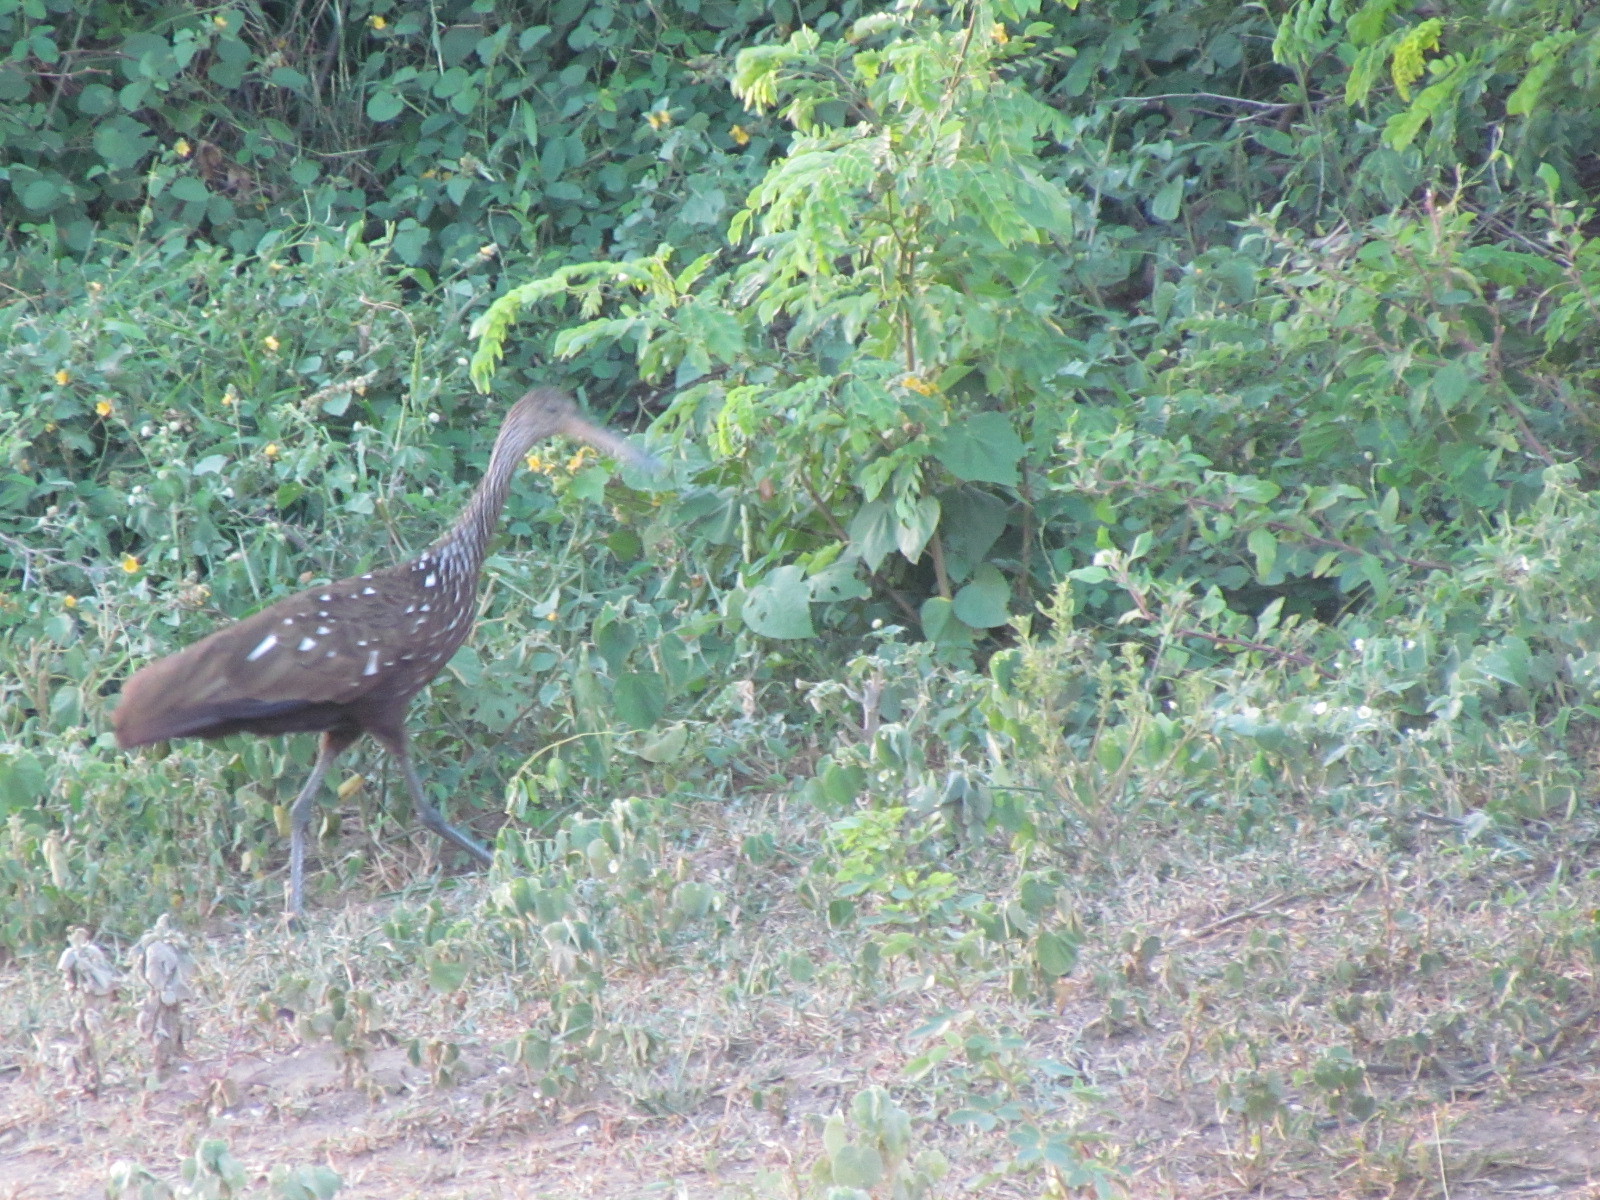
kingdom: Animalia
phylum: Chordata
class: Aves
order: Gruiformes
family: Aramidae
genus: Aramus
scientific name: Aramus guarauna
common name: Limpkin
